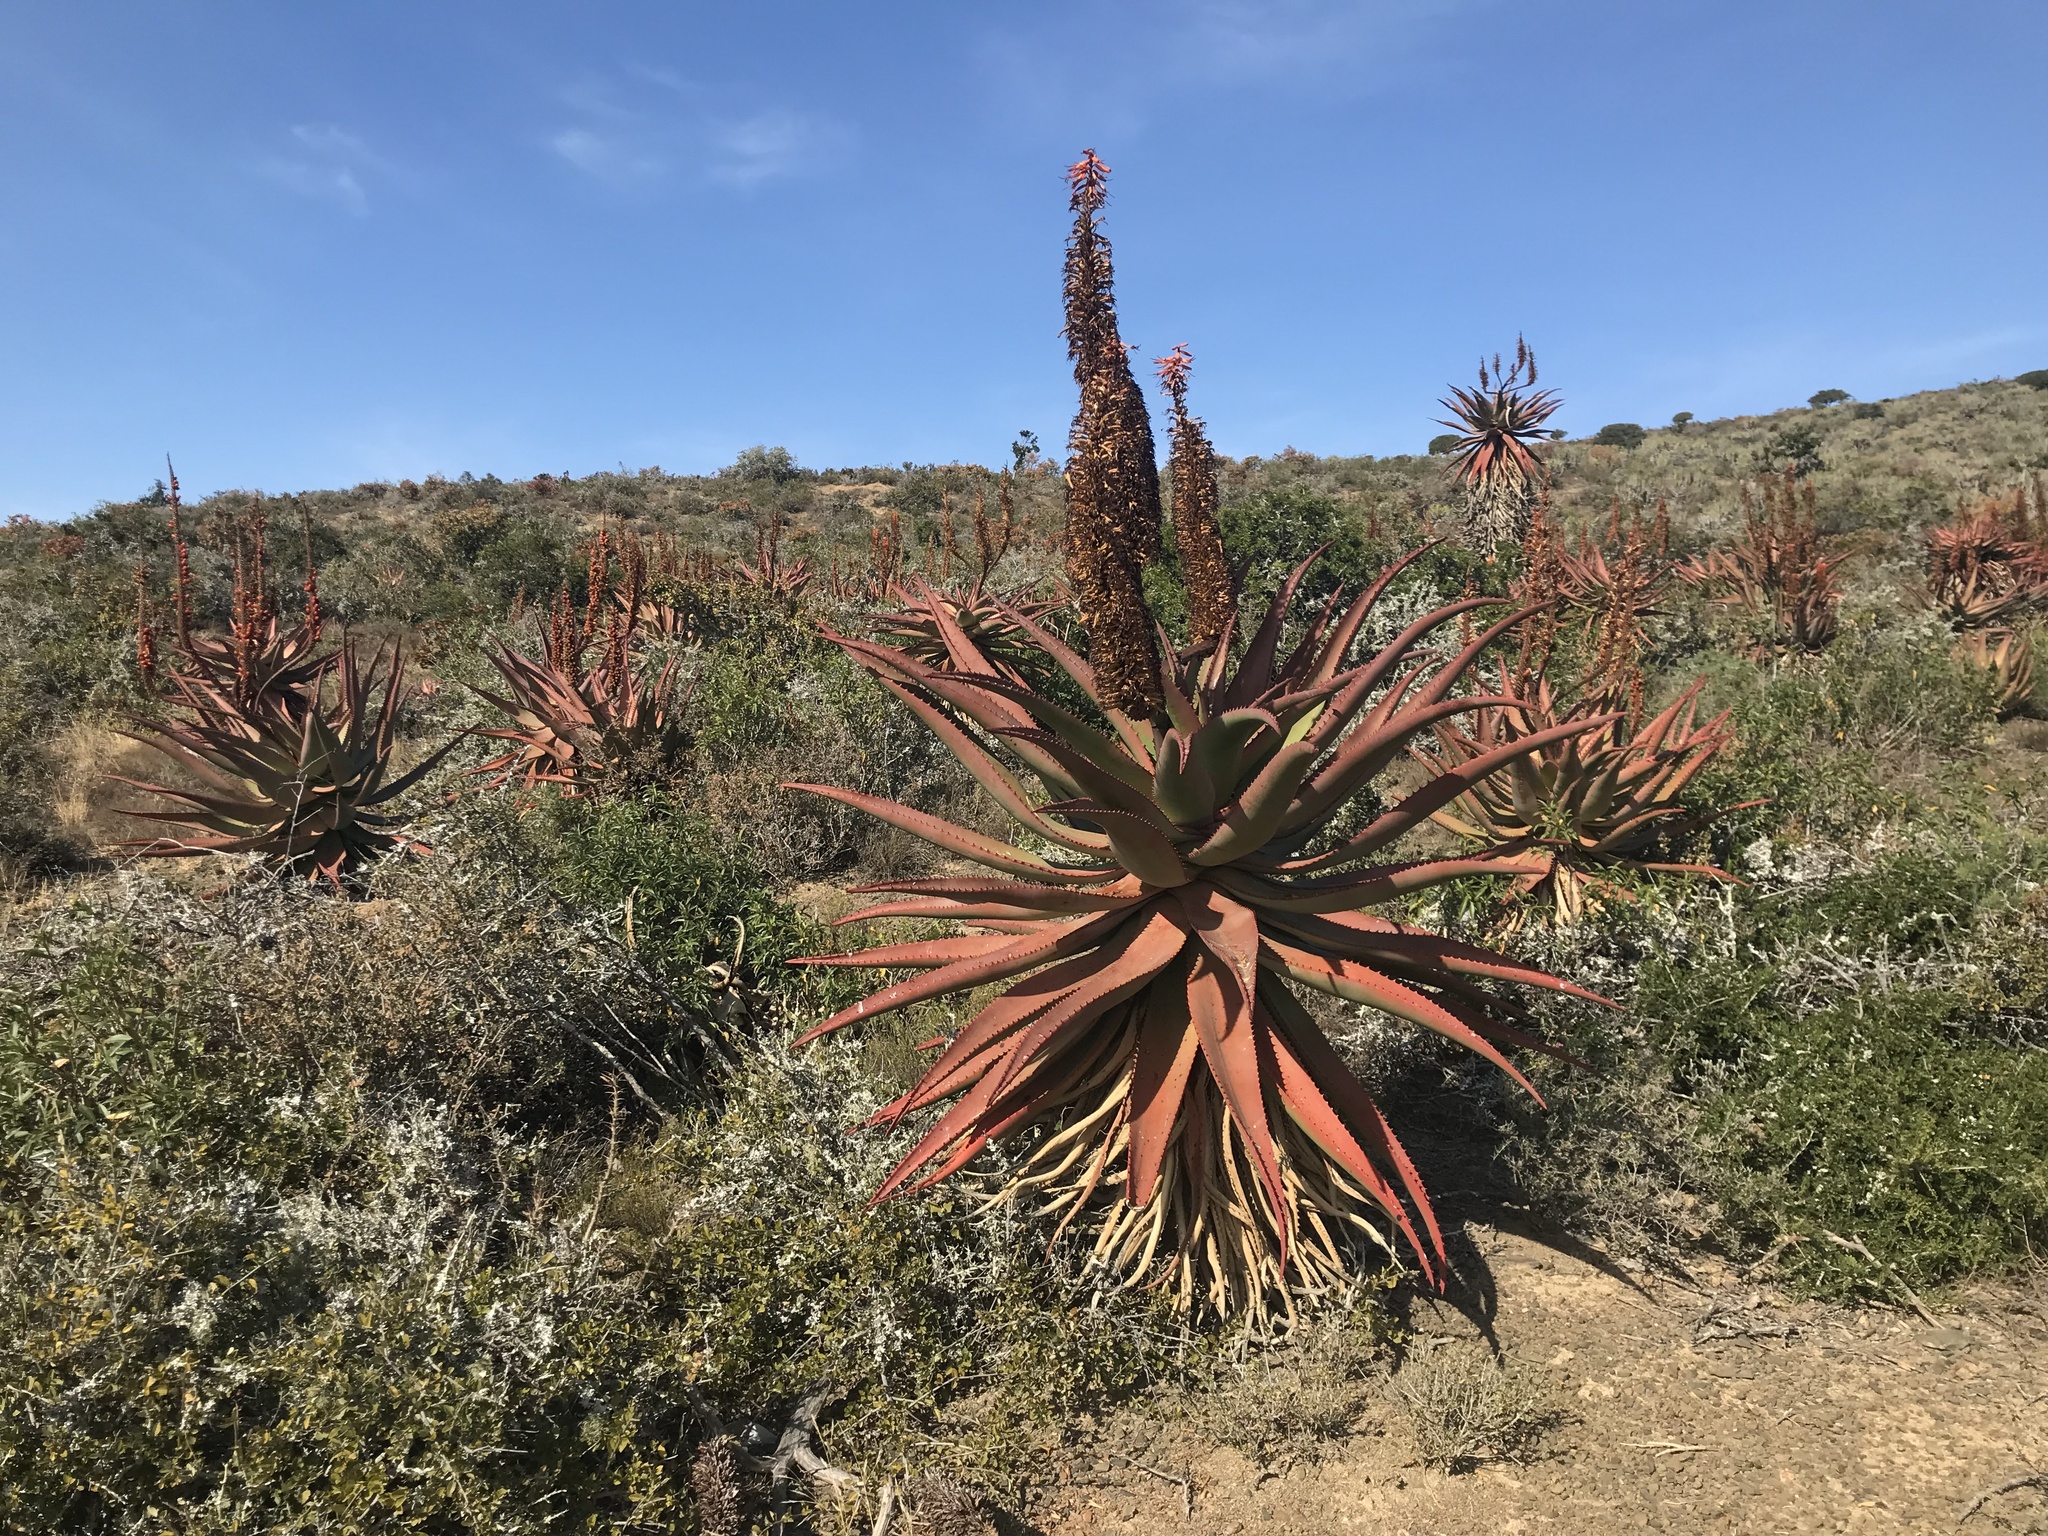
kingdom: Plantae
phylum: Tracheophyta
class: Liliopsida
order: Asparagales
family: Asphodelaceae
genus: Aloe
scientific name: Aloe ferox
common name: Bitter aloe
